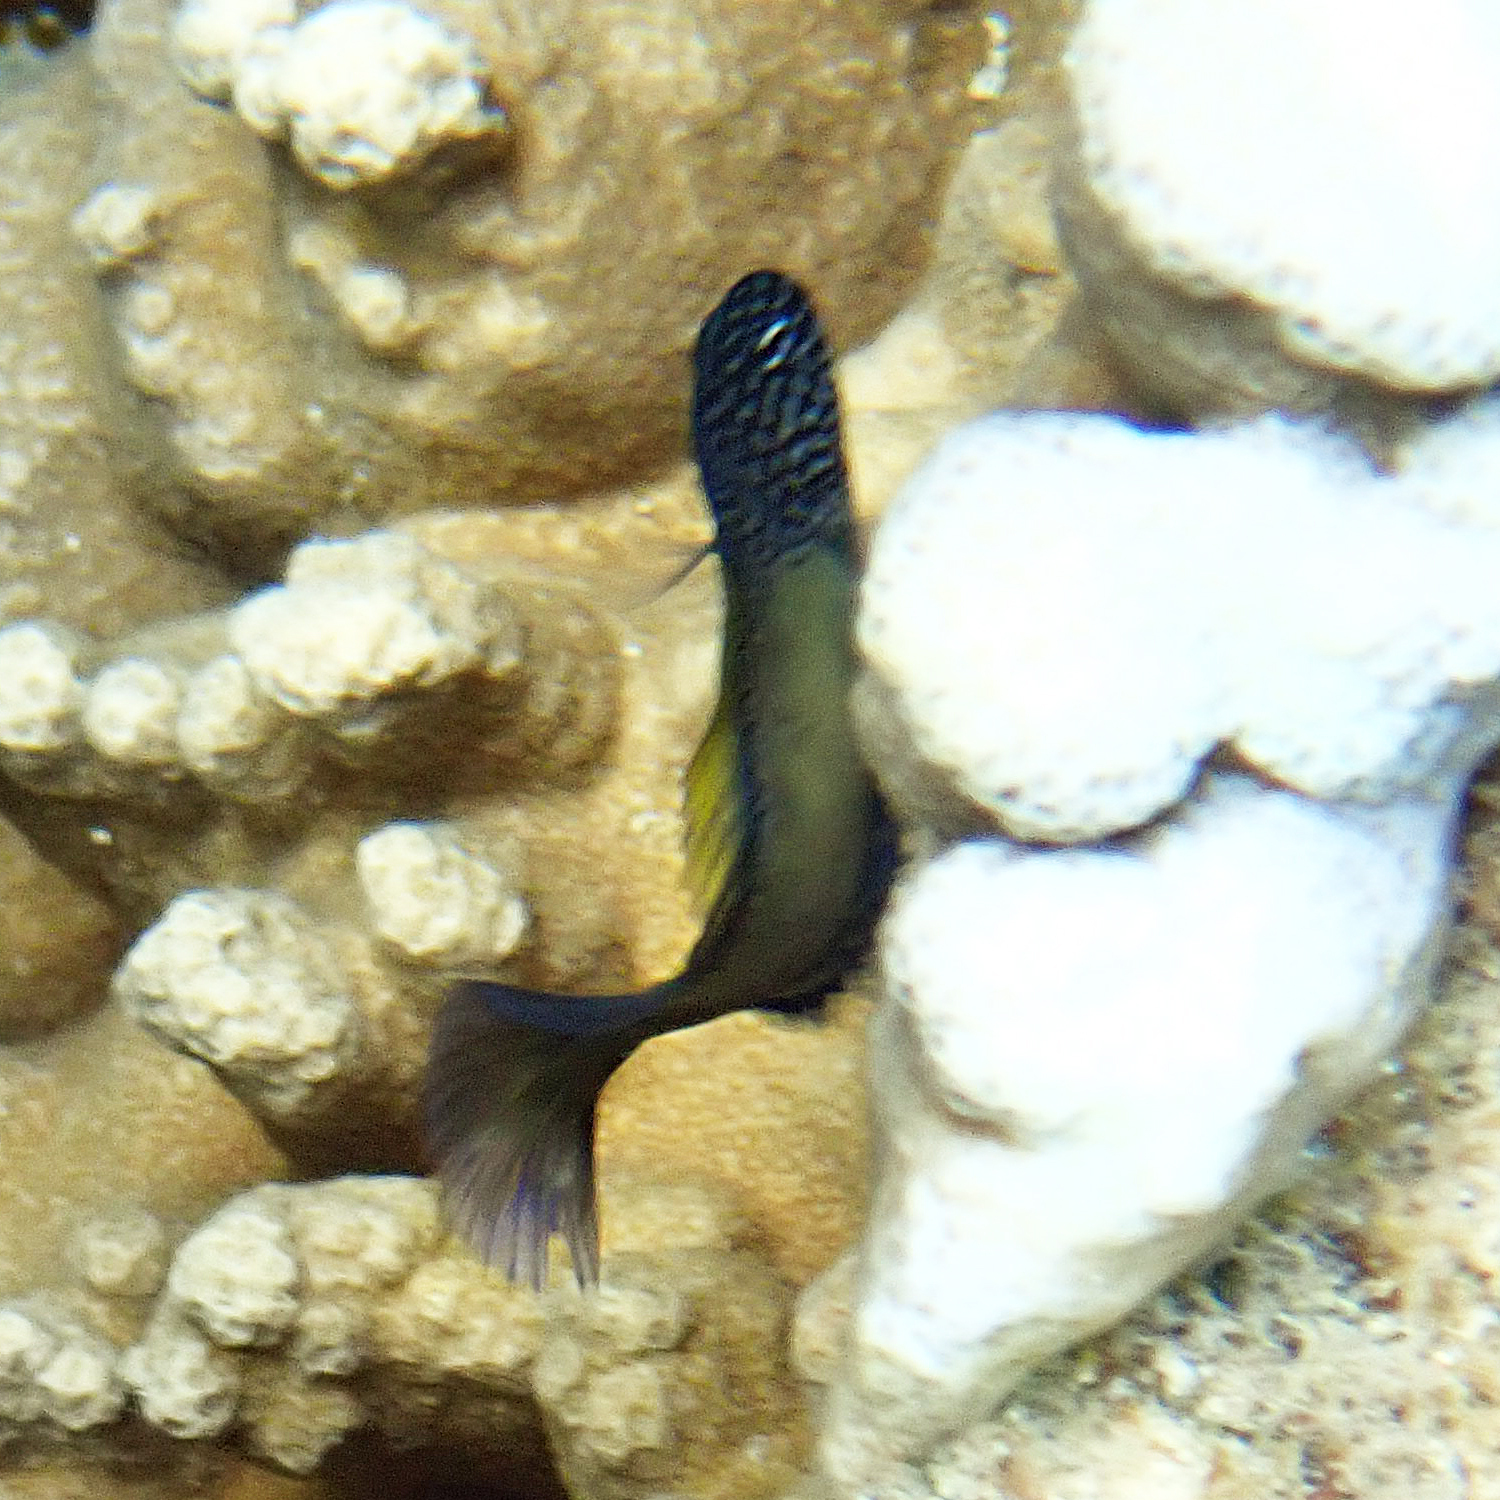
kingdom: Animalia
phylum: Chordata
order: Perciformes
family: Blenniidae
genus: Enchelyurus
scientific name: Enchelyurus ater
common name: Black blenny
